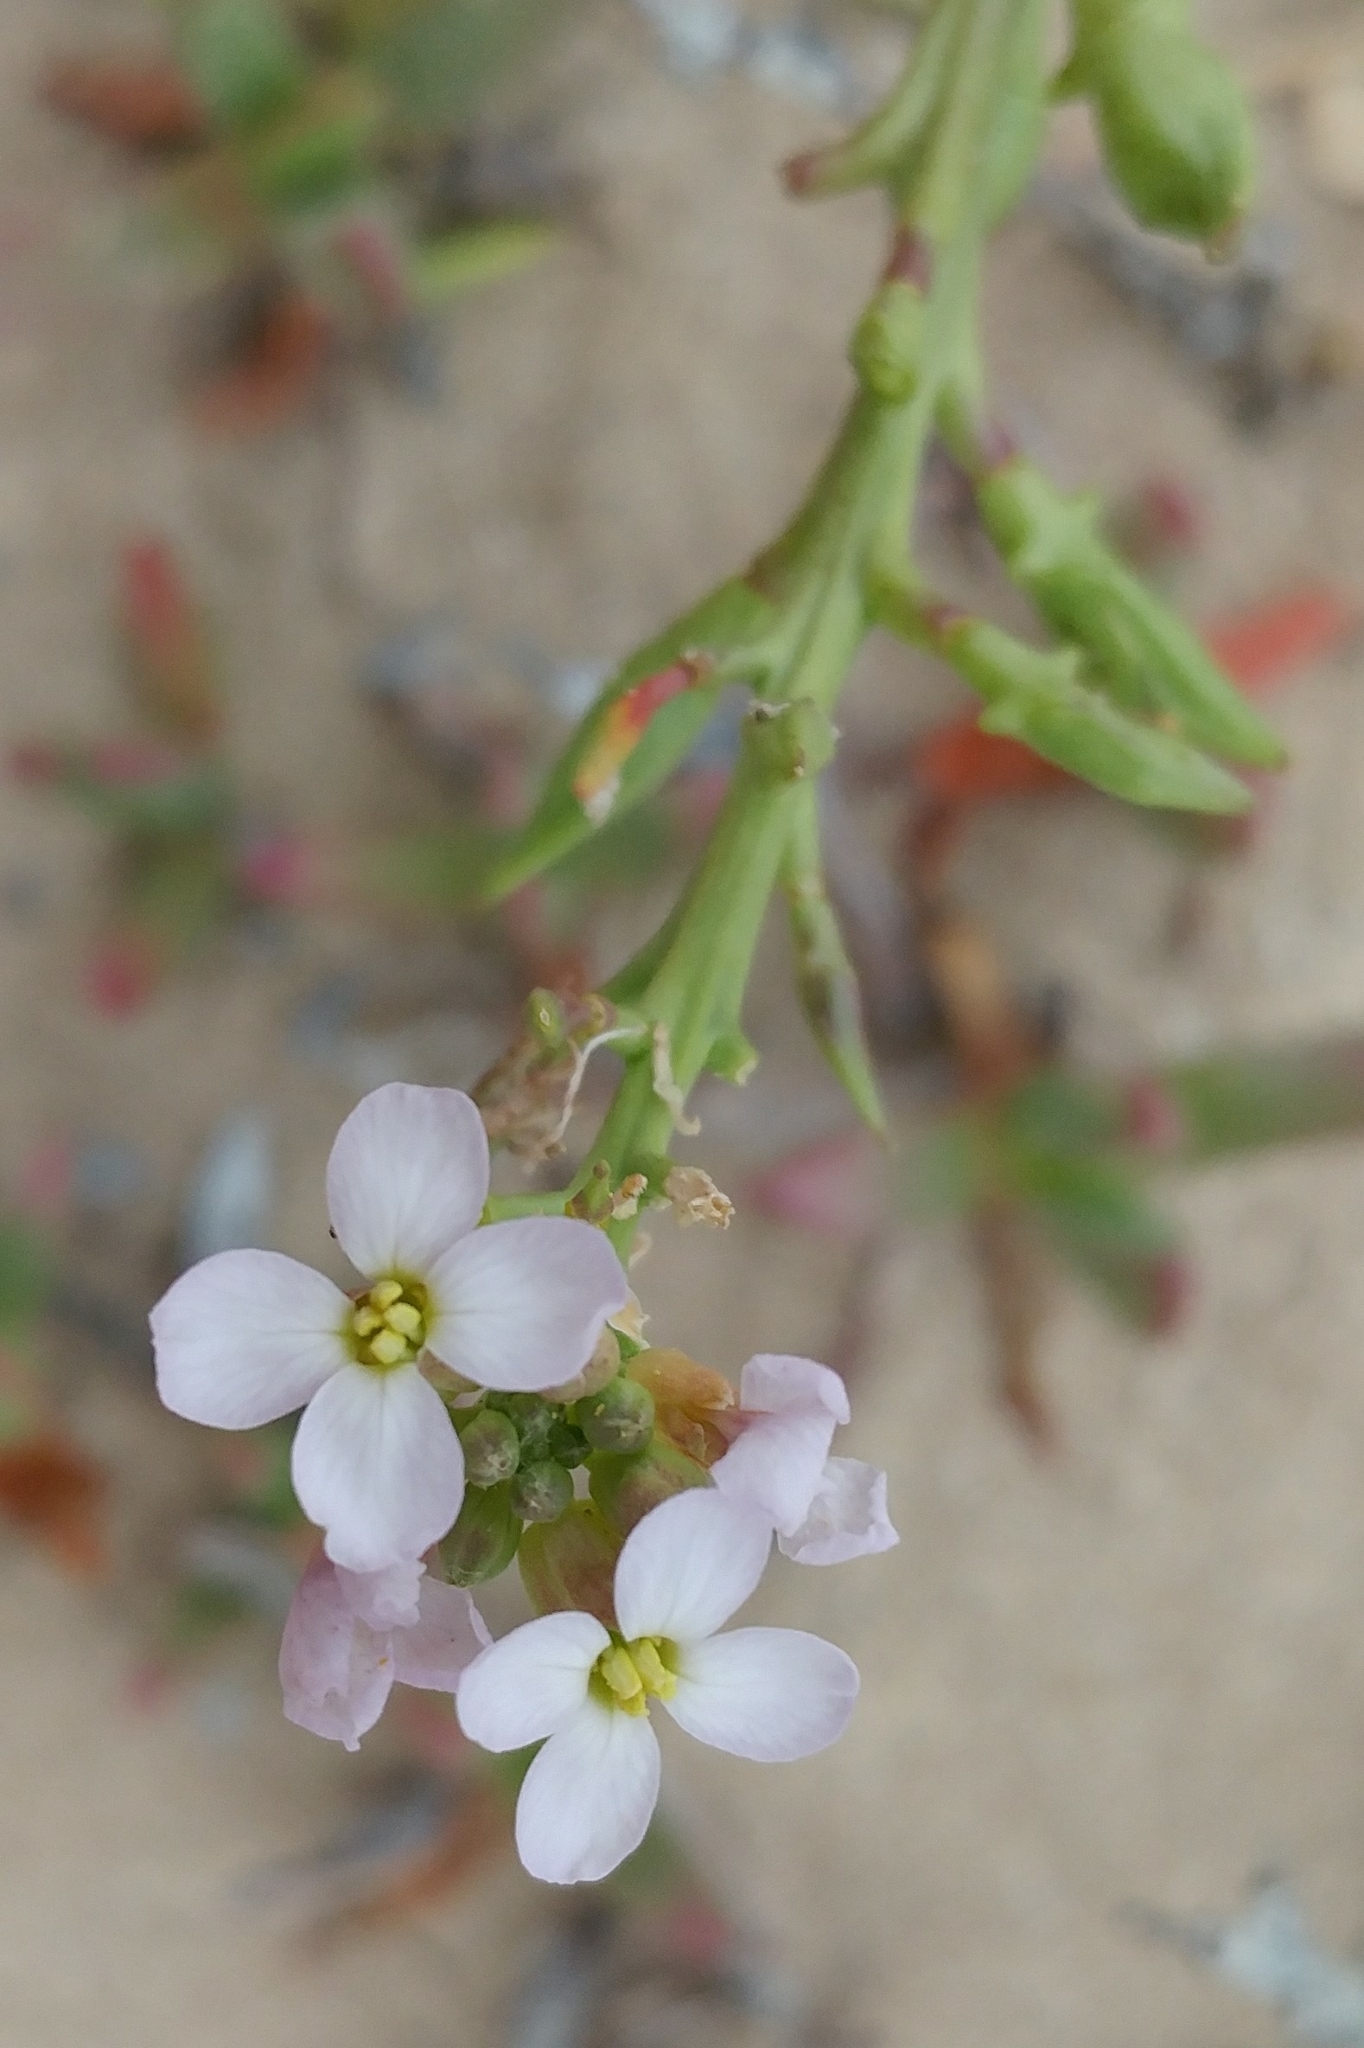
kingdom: Plantae
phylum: Tracheophyta
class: Magnoliopsida
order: Brassicales
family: Brassicaceae
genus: Cakile
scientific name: Cakile maritima
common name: Sea rocket
